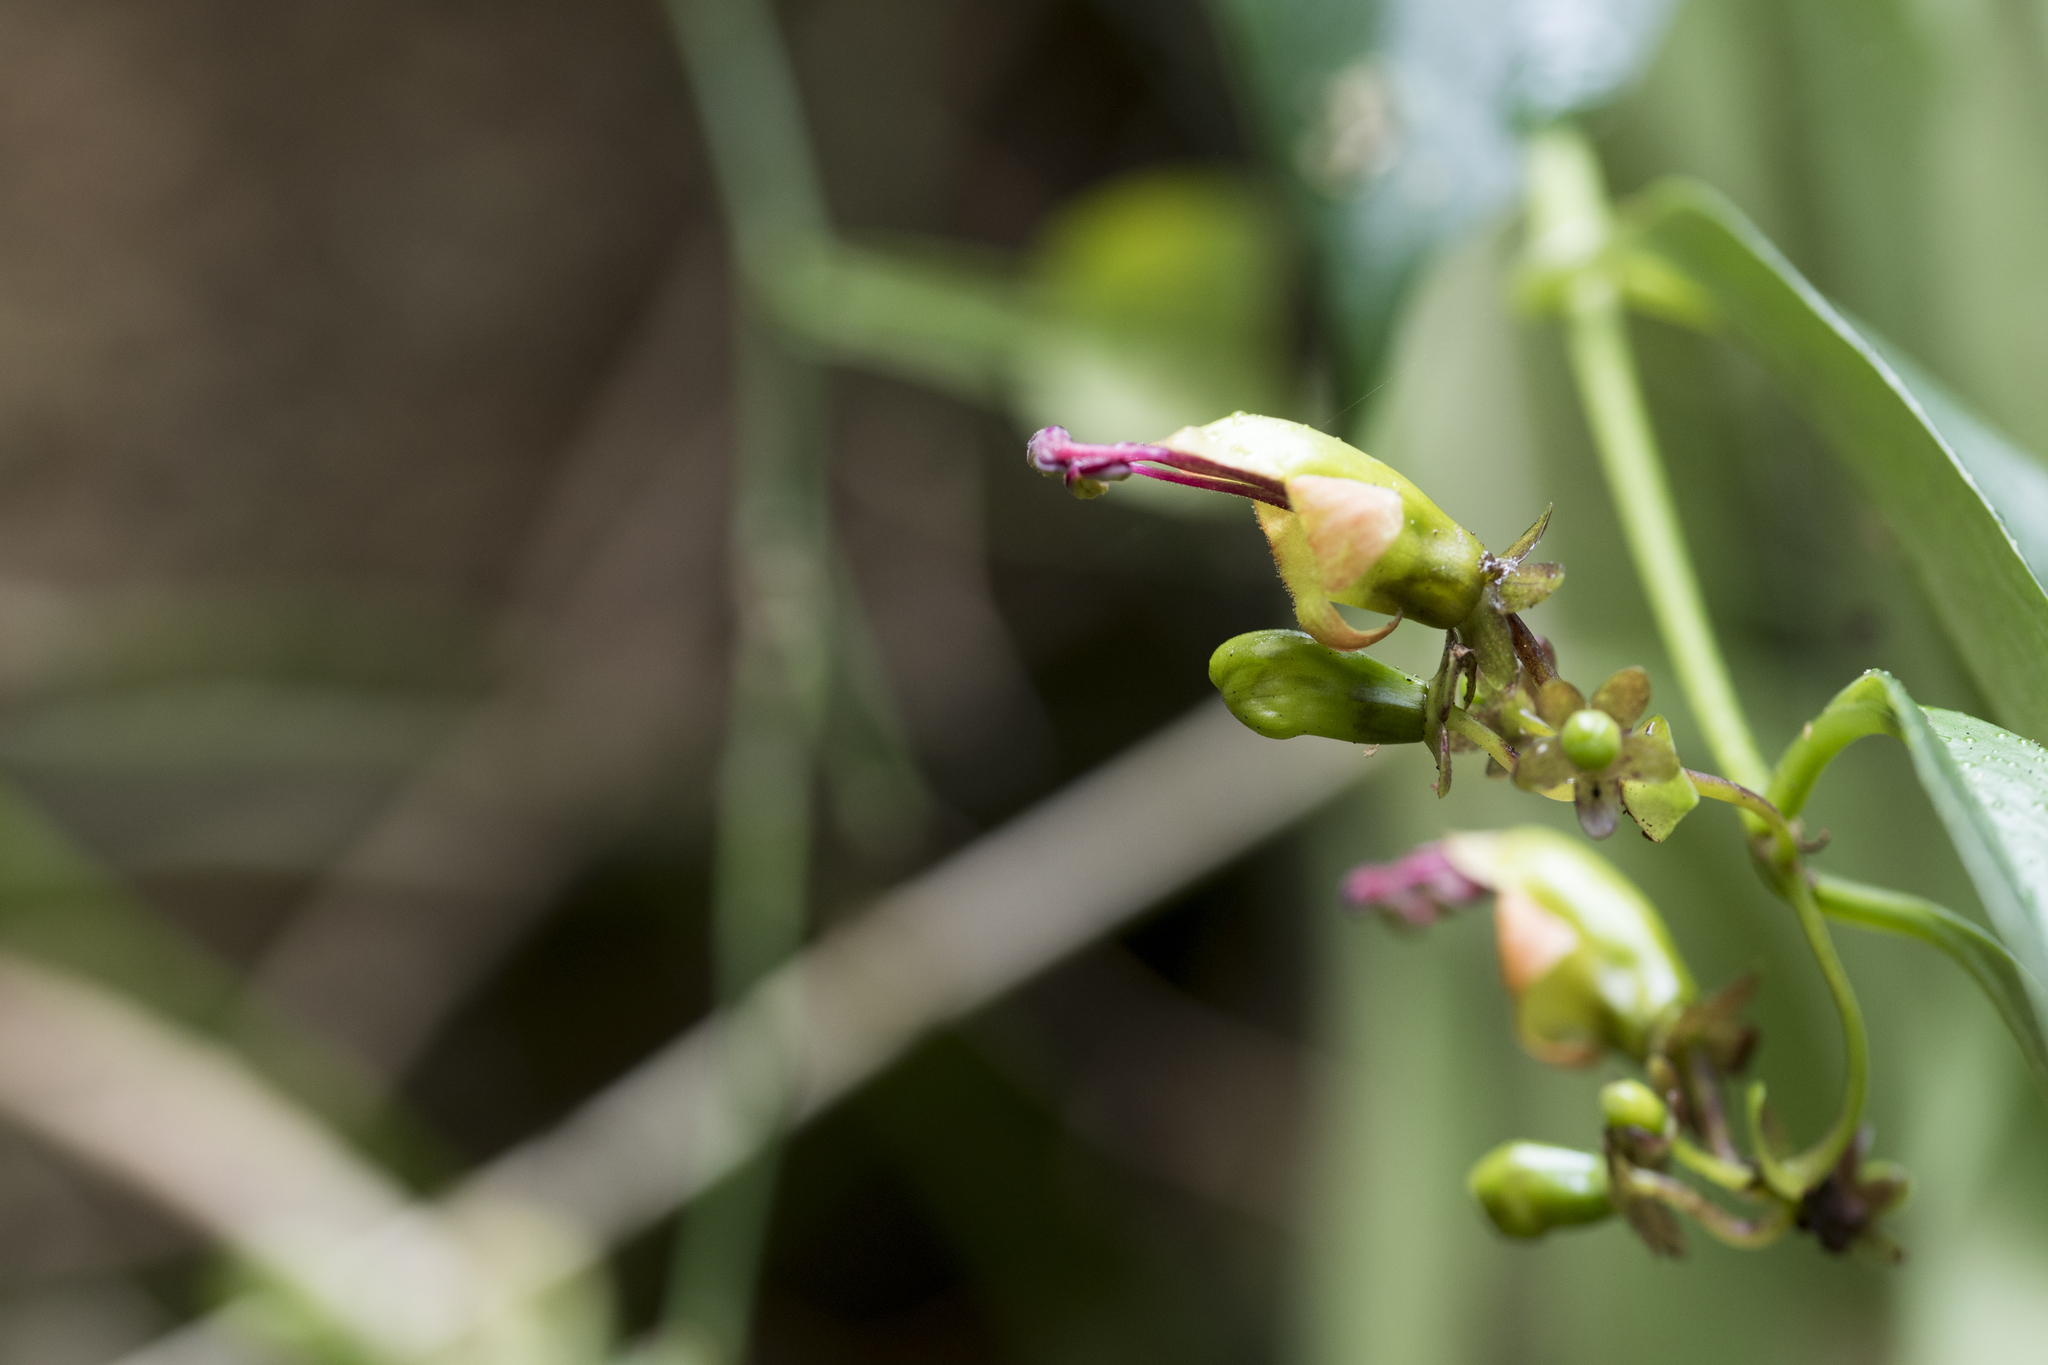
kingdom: Plantae
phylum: Tracheophyta
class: Magnoliopsida
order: Lamiales
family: Gesneriaceae
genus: Aeschynanthus
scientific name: Aeschynanthus acuminatus
